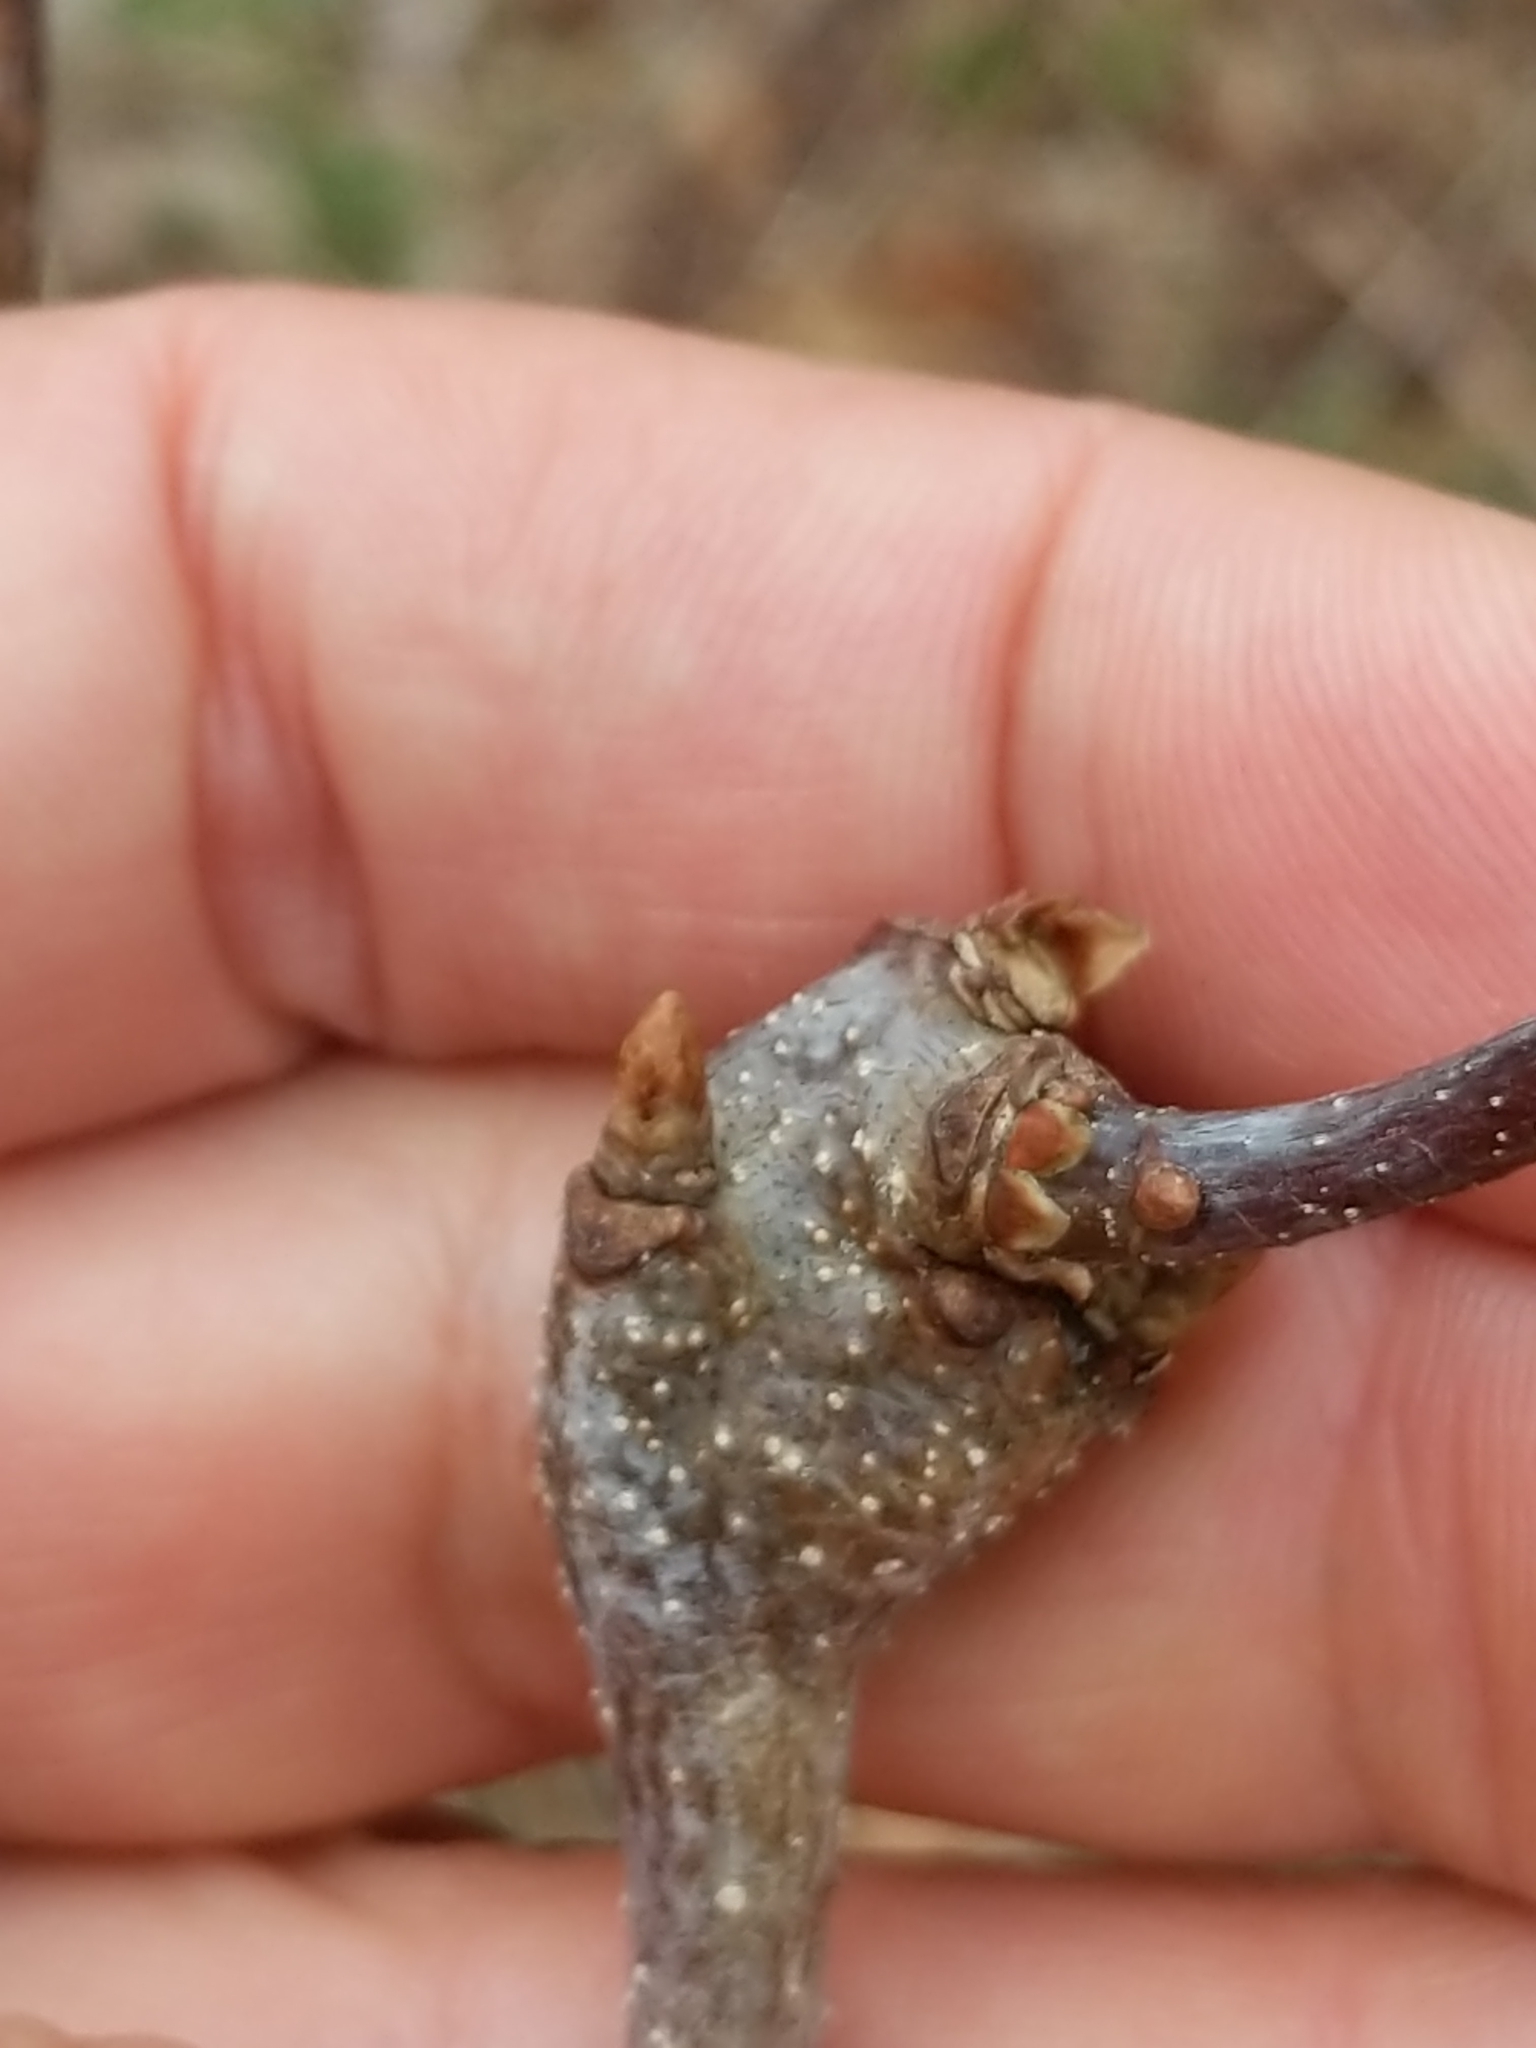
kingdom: Animalia
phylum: Arthropoda
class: Insecta
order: Hymenoptera
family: Cynipidae
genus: Zapatella
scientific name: Zapatella quercusphellos
